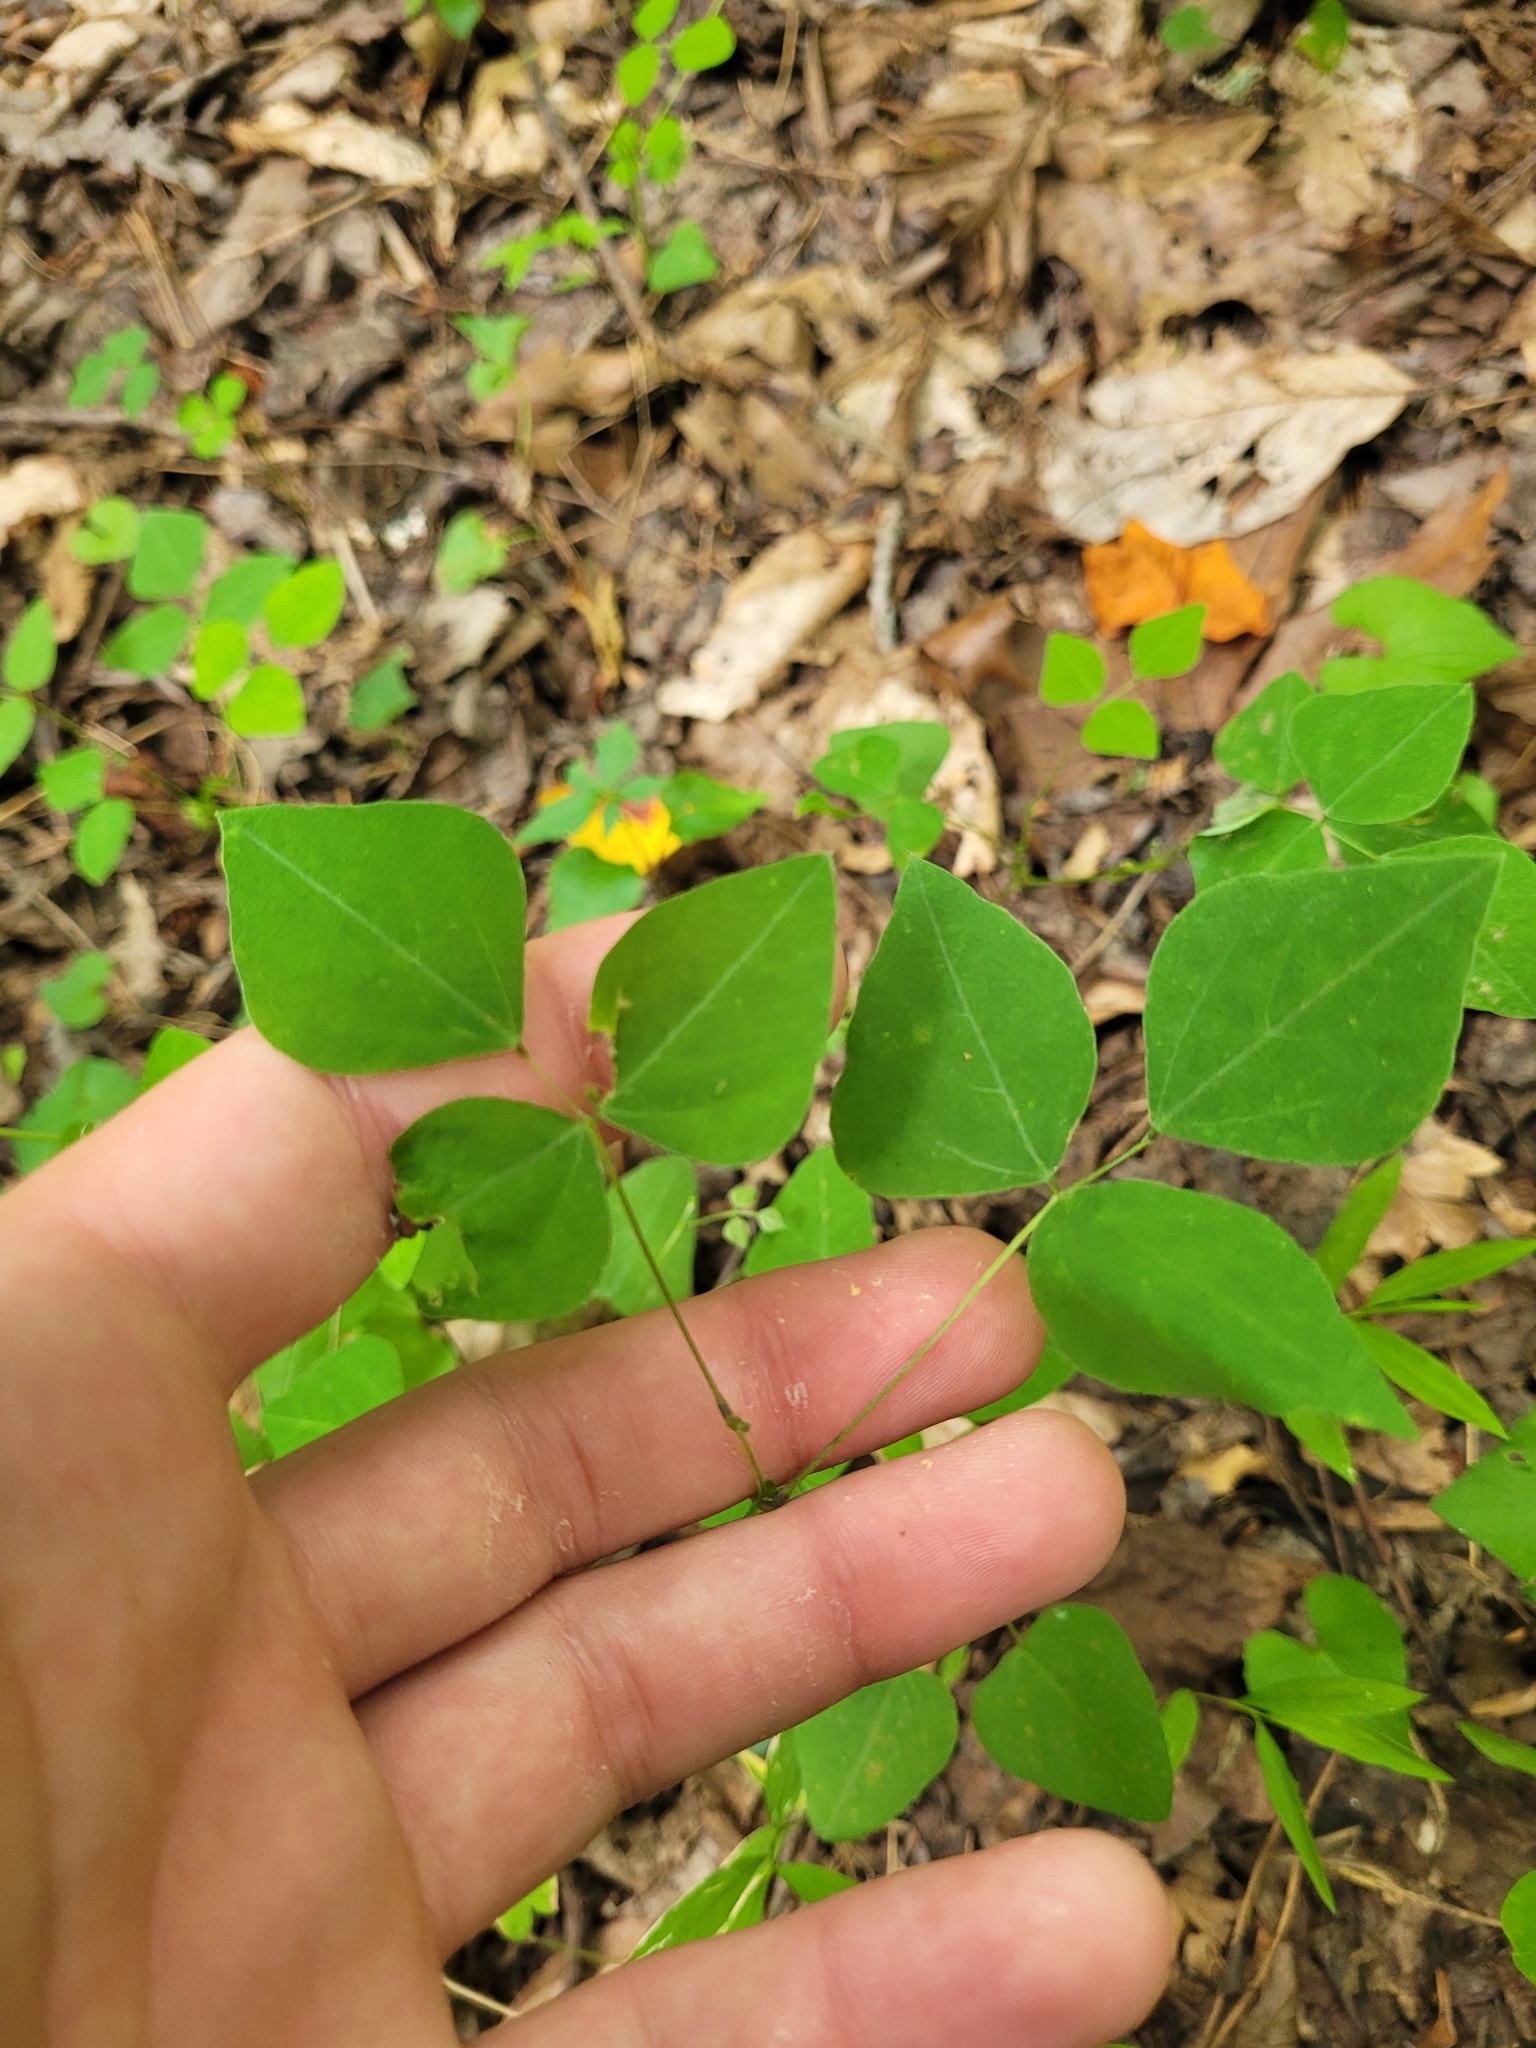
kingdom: Plantae
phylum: Tracheophyta
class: Magnoliopsida
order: Fabales
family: Fabaceae
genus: Amphicarpaea
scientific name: Amphicarpaea bracteata
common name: American hog peanut
